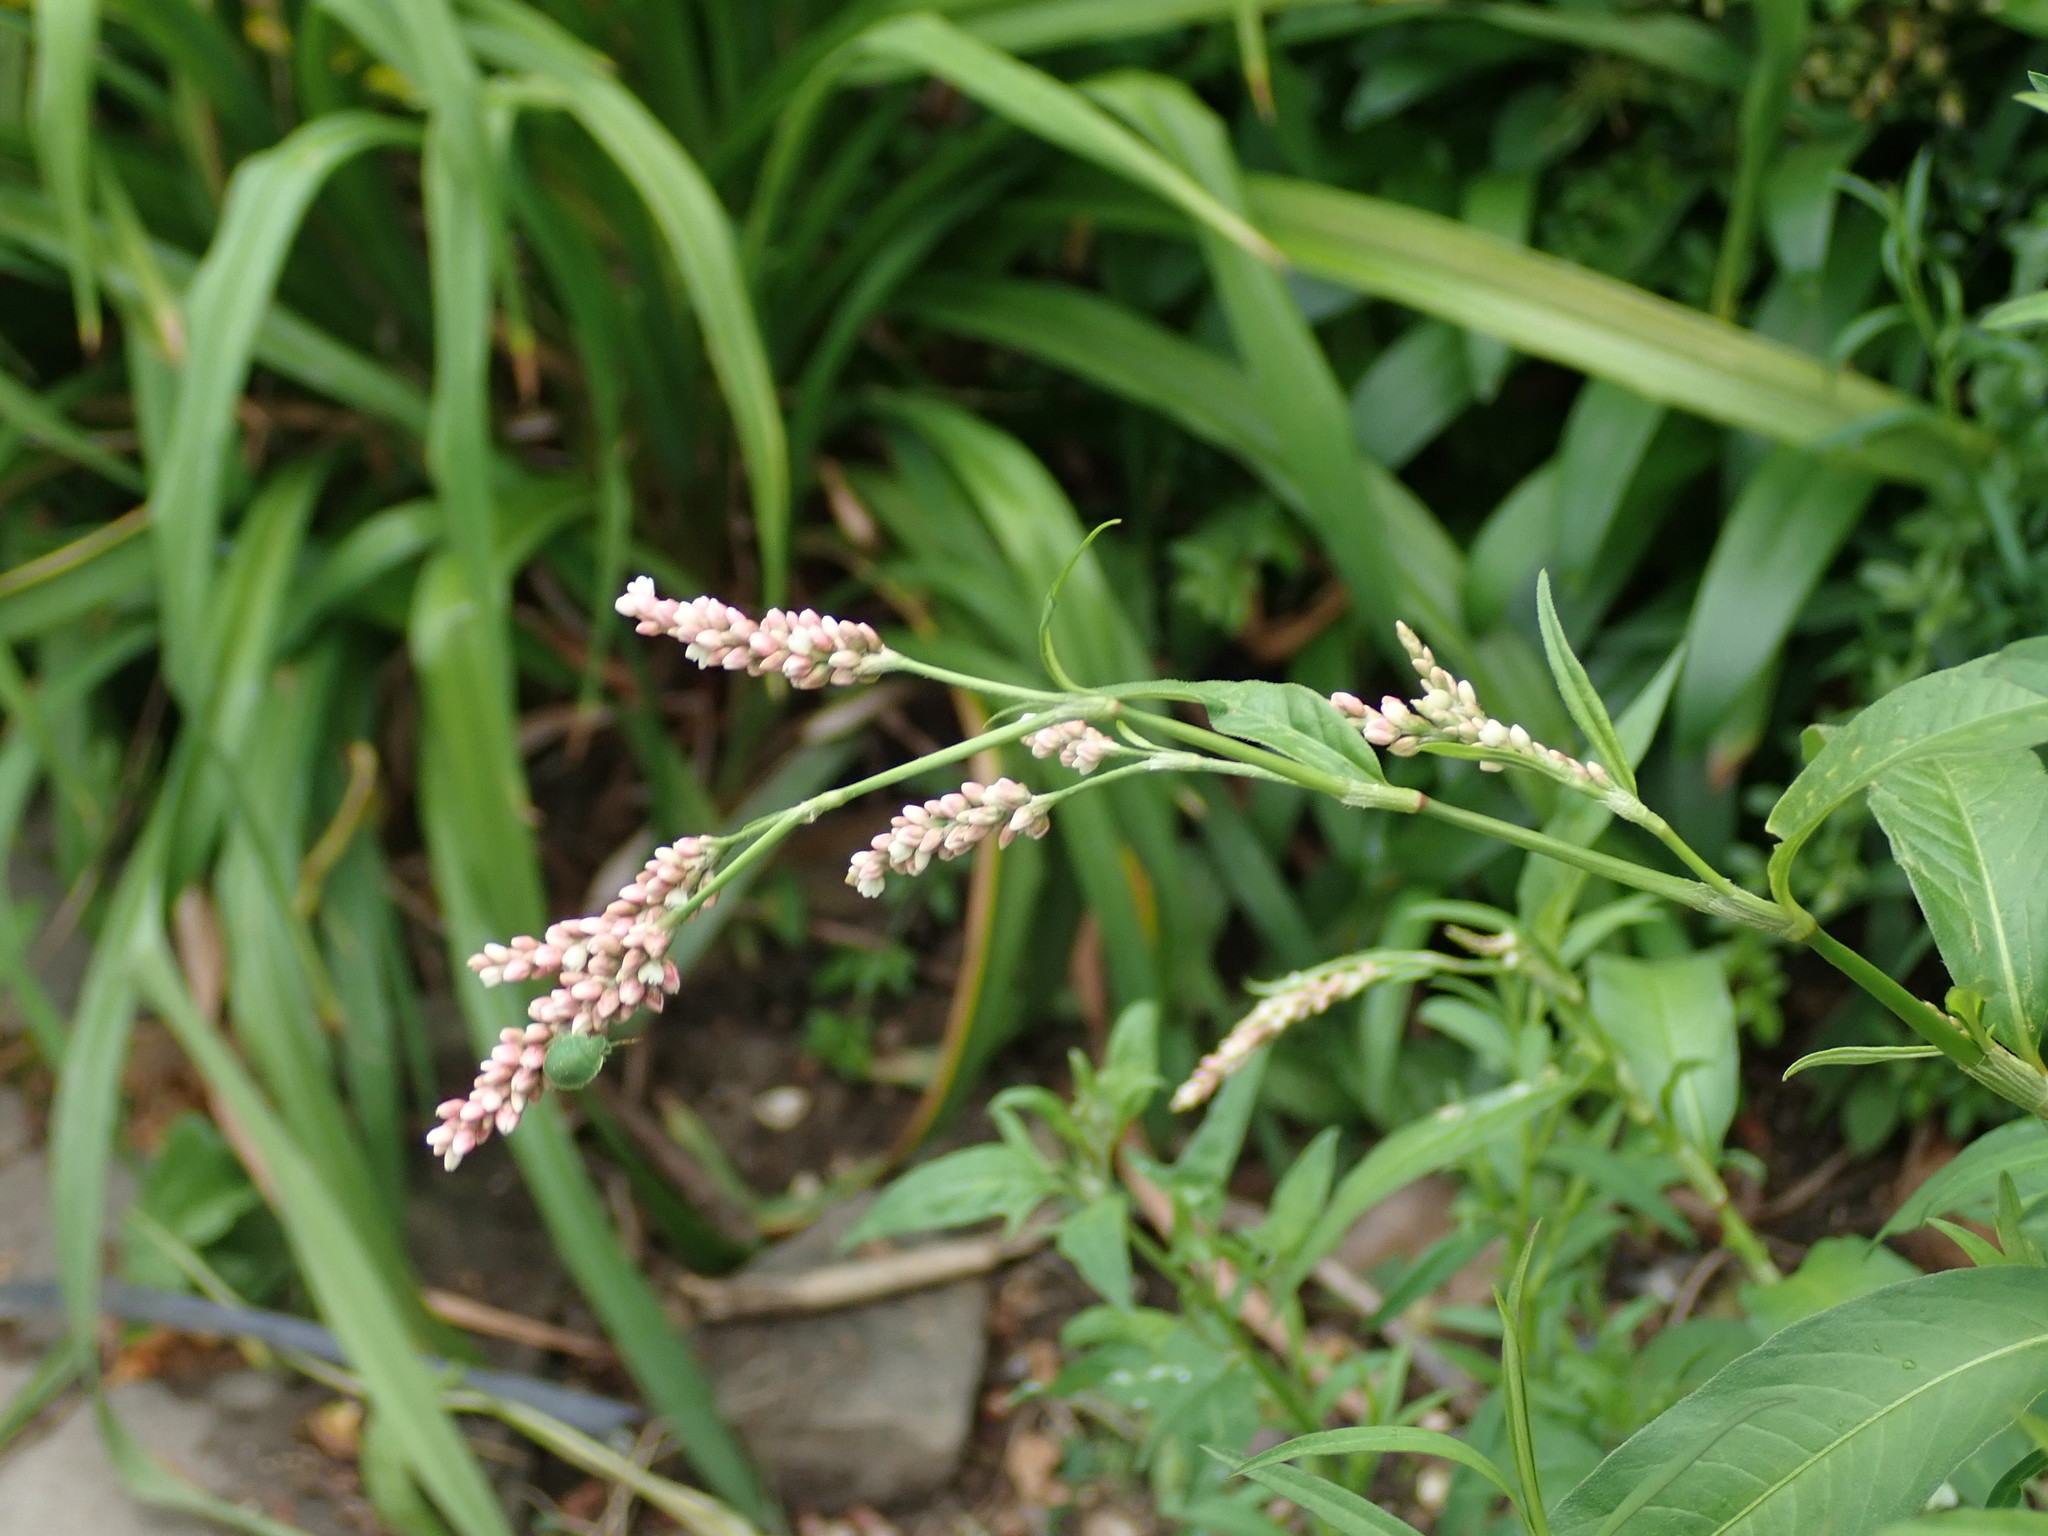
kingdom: Plantae
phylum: Tracheophyta
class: Magnoliopsida
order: Caryophyllales
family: Polygonaceae
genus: Persicaria
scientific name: Persicaria maculosa
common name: Redshank
